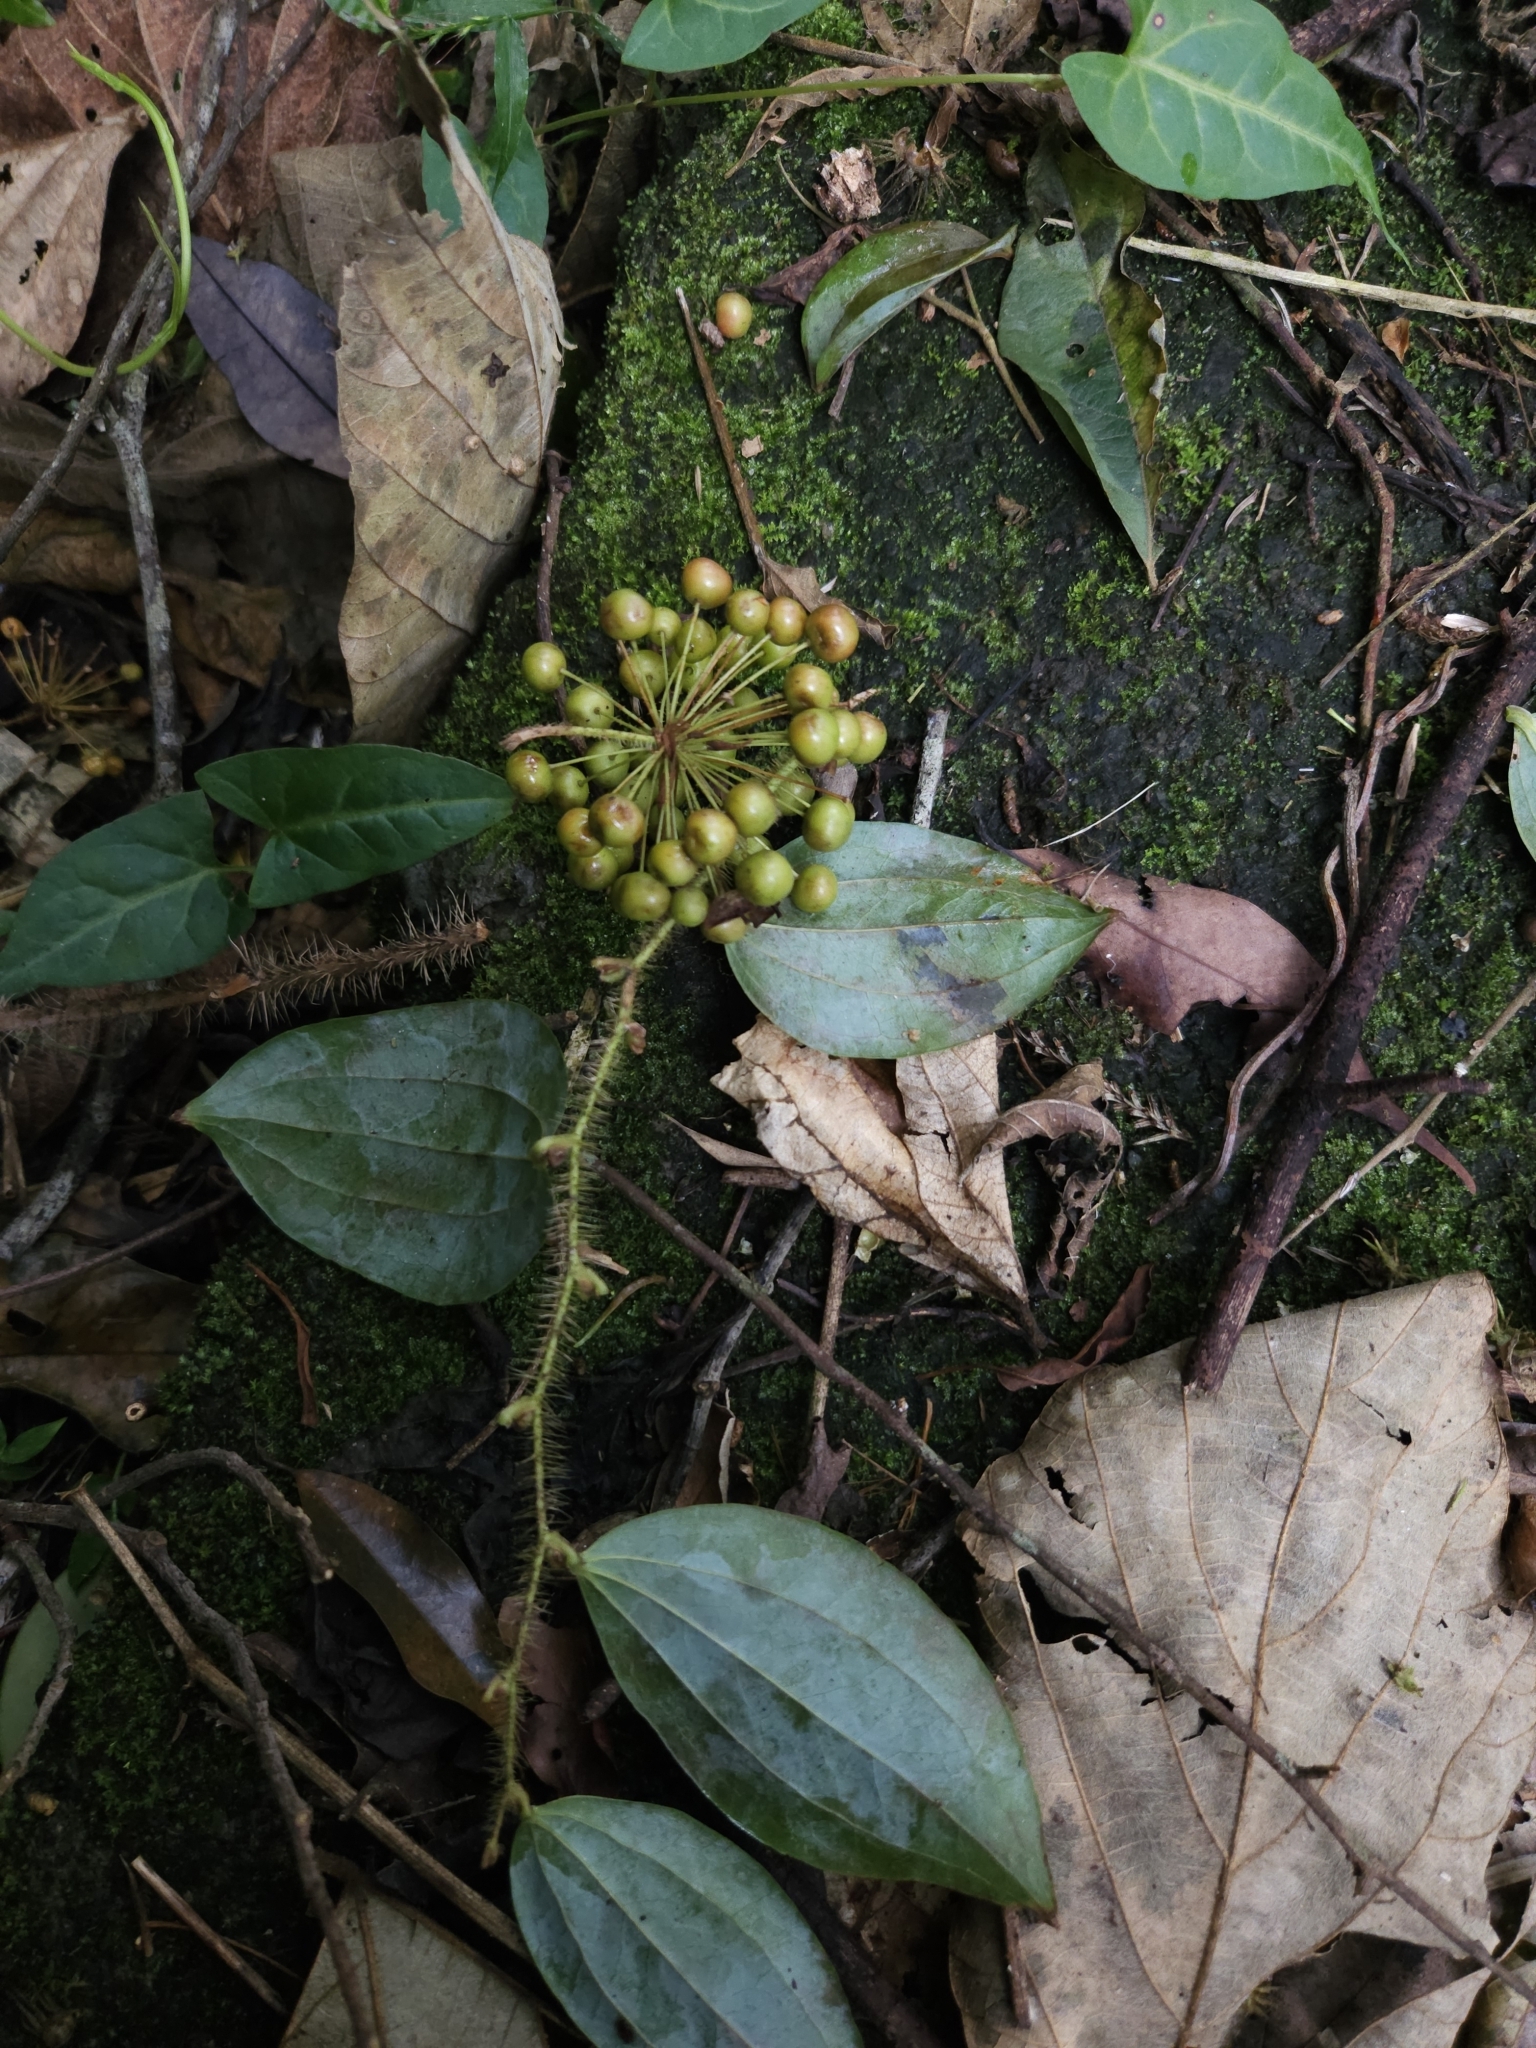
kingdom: Plantae
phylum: Tracheophyta
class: Liliopsida
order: Liliales
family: Smilacaceae
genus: Smilax
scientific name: Smilax horridiramula
